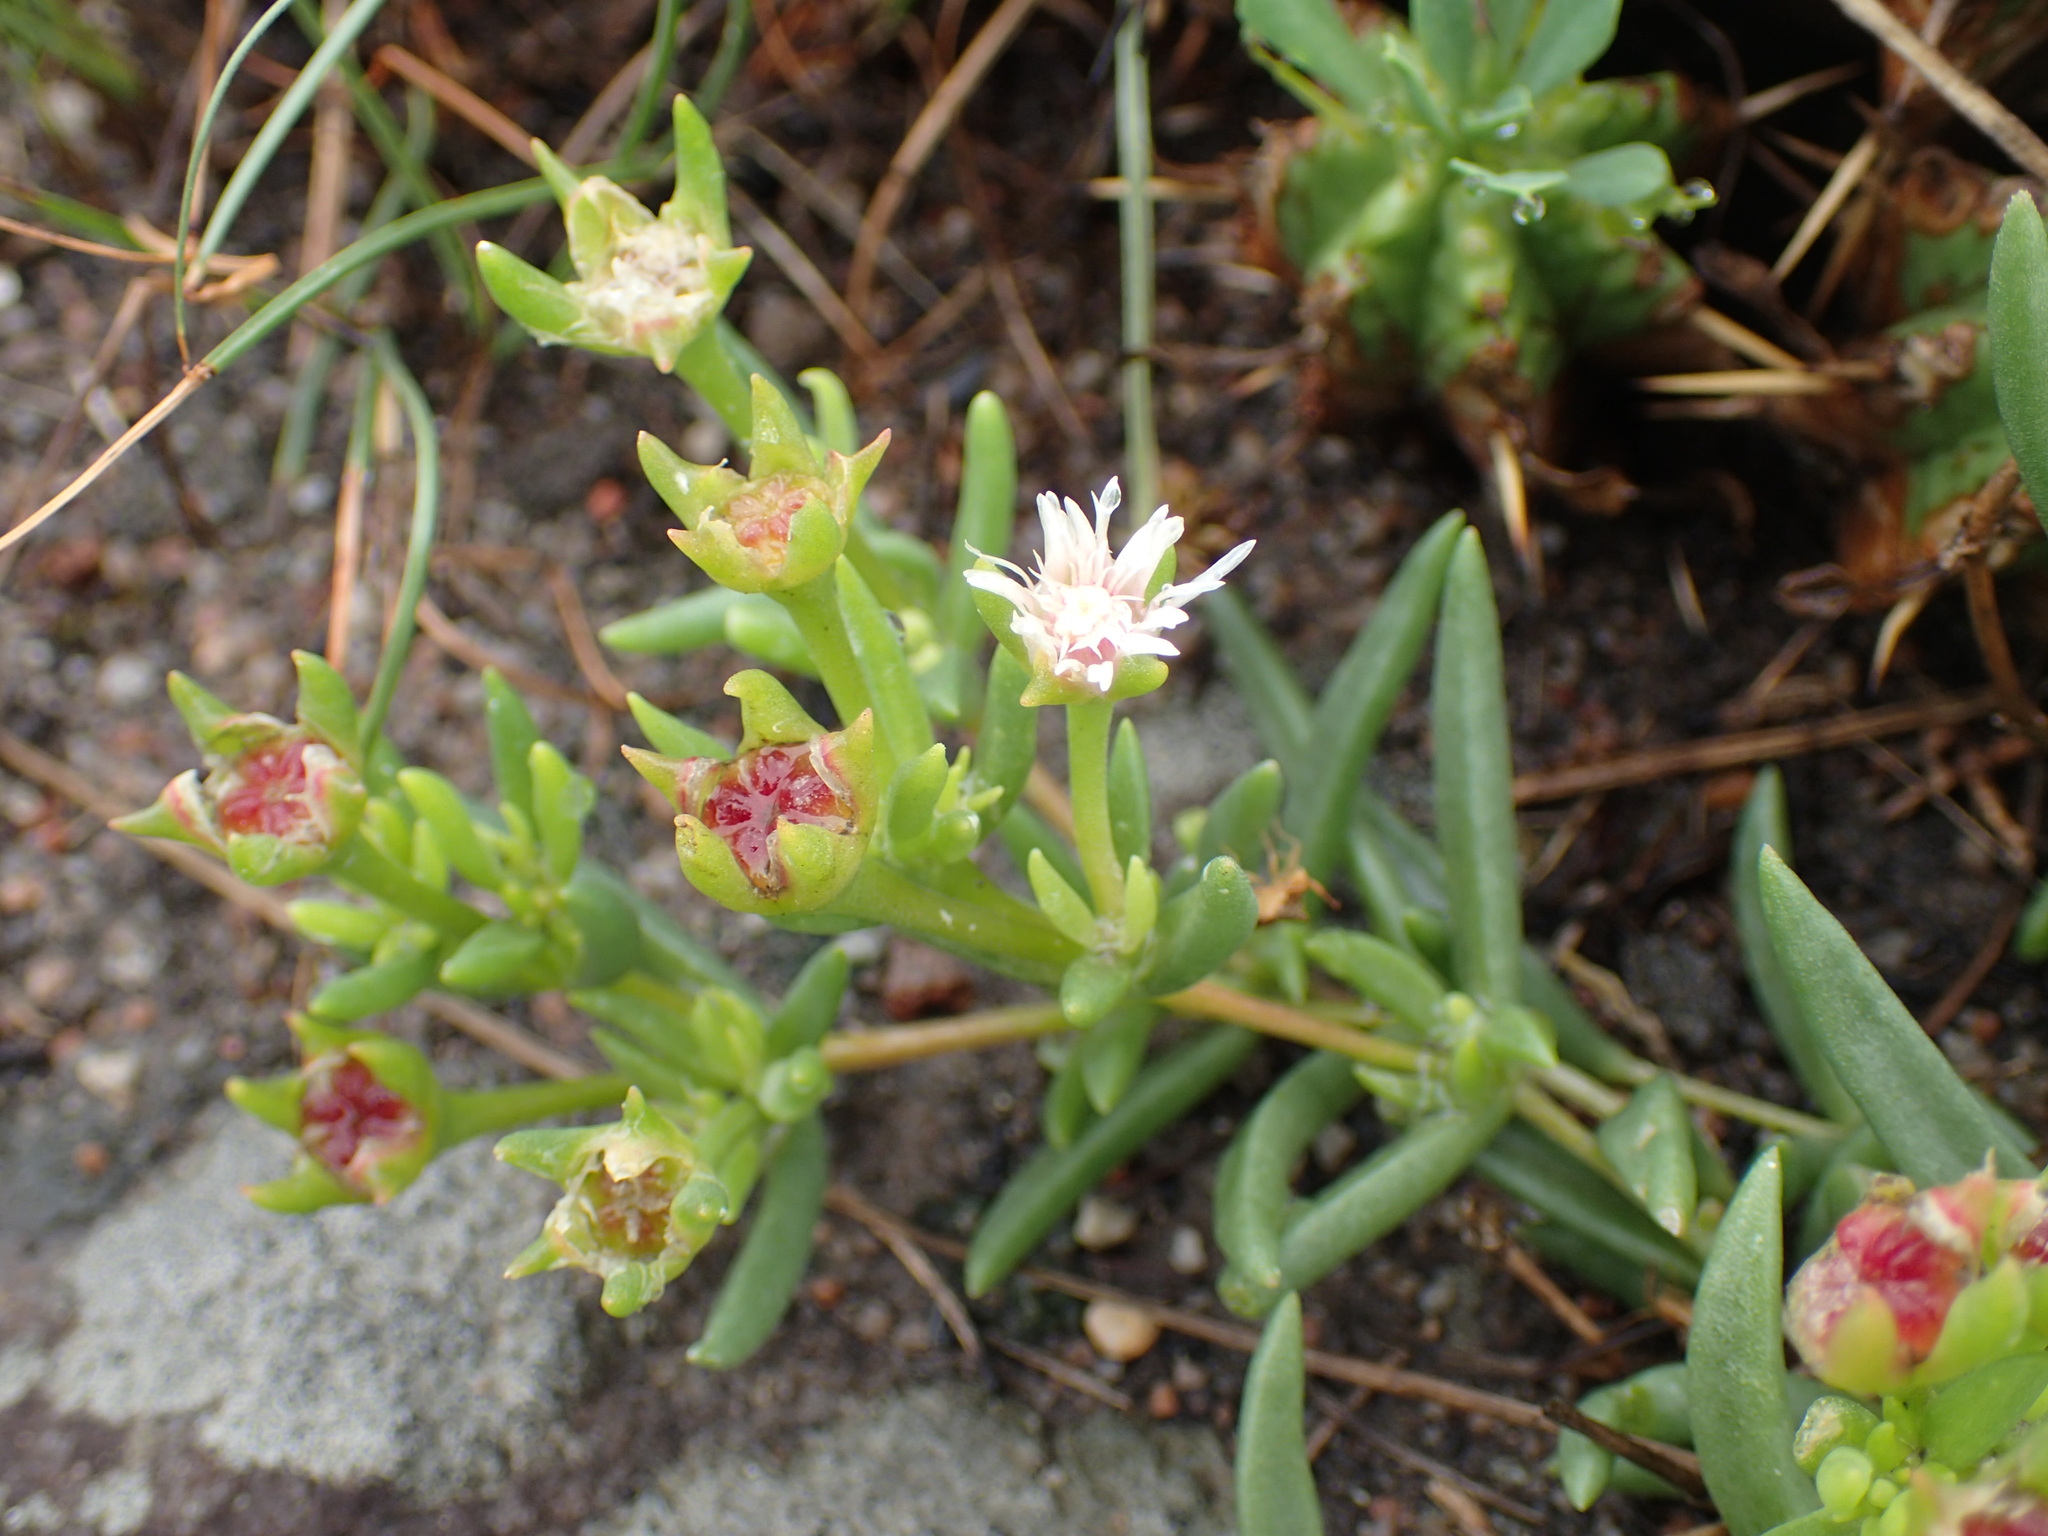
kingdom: Plantae
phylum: Tracheophyta
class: Magnoliopsida
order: Caryophyllales
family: Aizoaceae
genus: Delosperma
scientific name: Delosperma lineare
